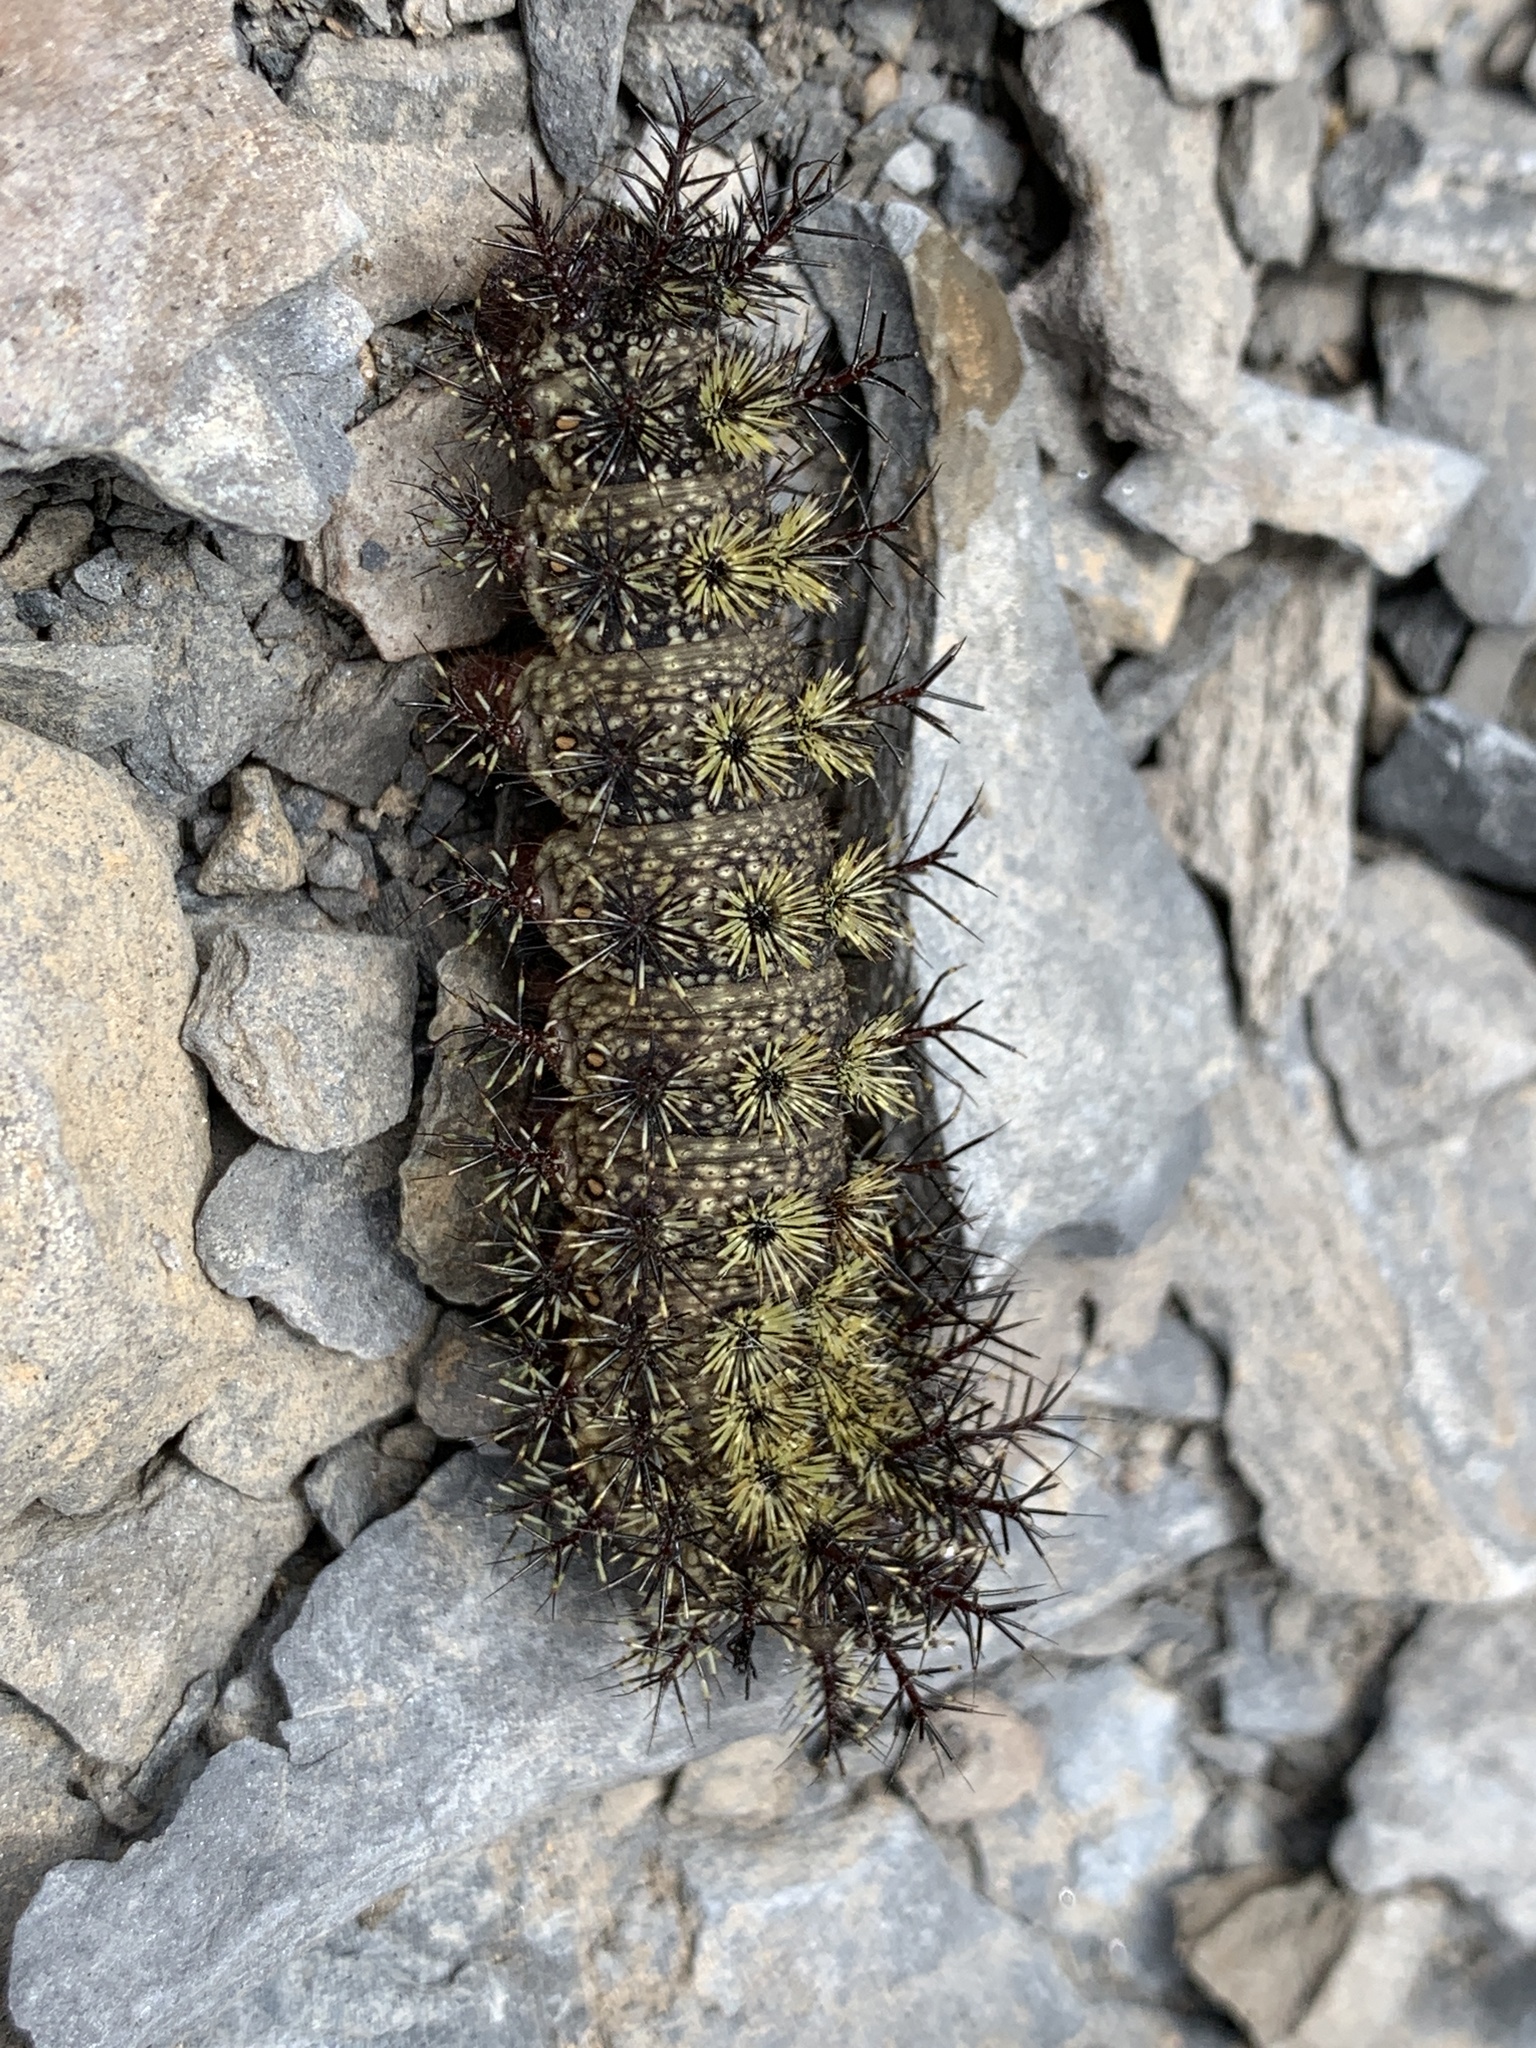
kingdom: Animalia
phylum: Arthropoda
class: Insecta
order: Lepidoptera
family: Saturniidae
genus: Hemileuca
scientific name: Hemileuca maia
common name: Eastern buckmoth
